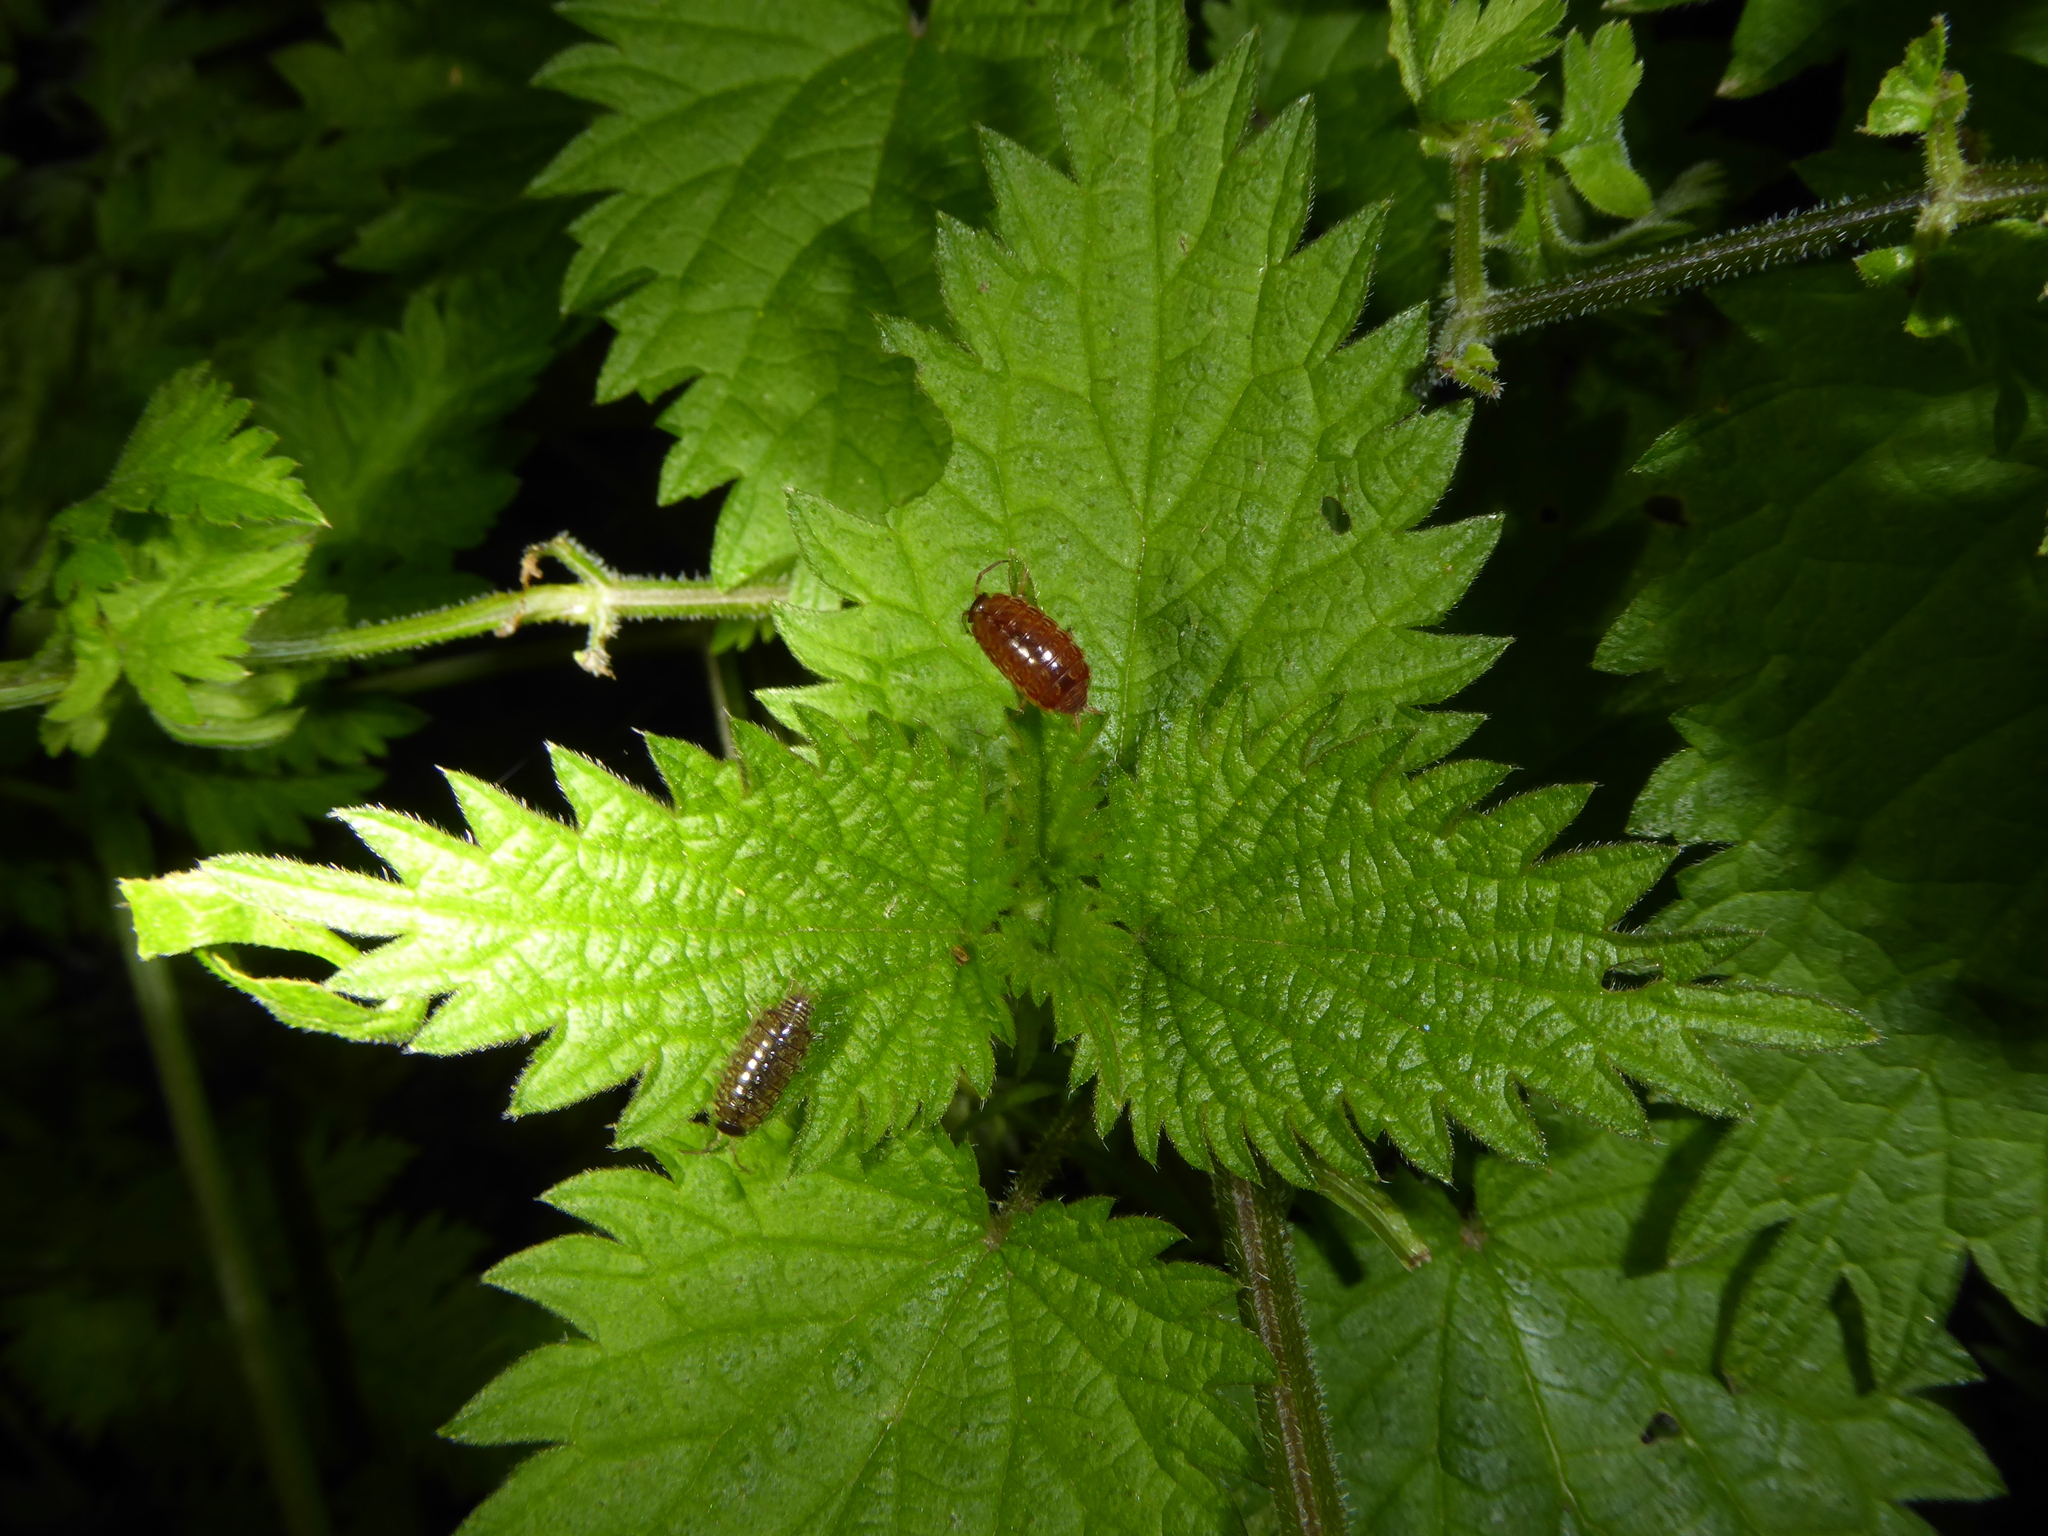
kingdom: Animalia
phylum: Arthropoda
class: Malacostraca
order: Isopoda
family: Philosciidae
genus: Philoscia
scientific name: Philoscia muscorum
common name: Common striped woodlouse
